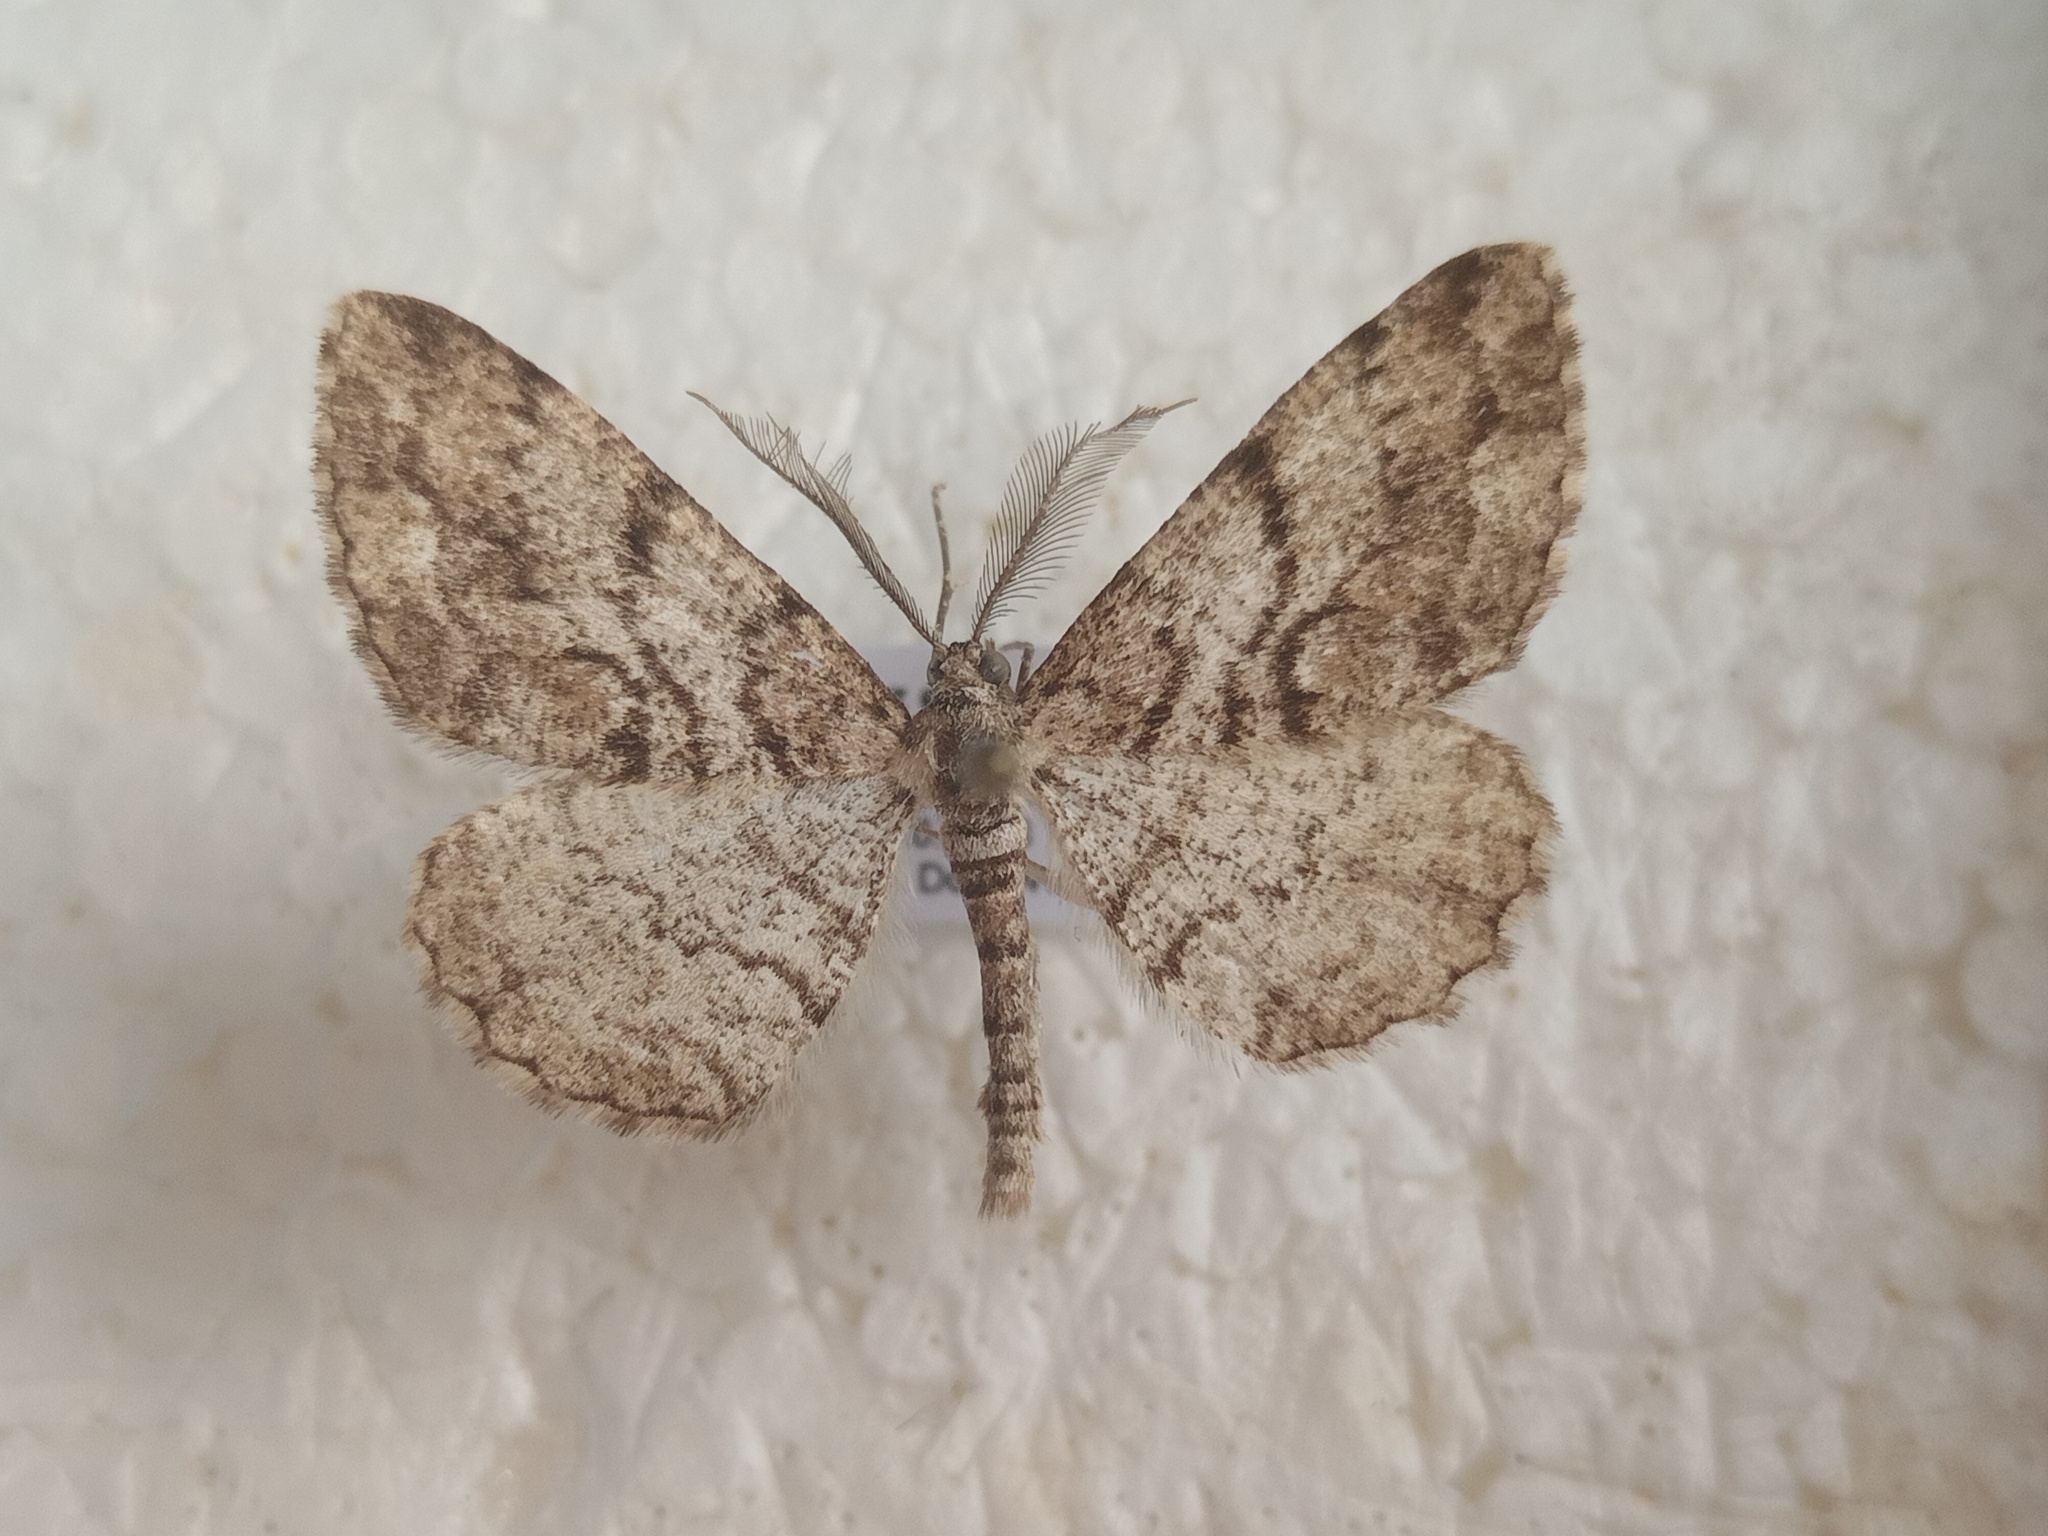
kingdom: Animalia
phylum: Arthropoda
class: Insecta
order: Lepidoptera
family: Geometridae
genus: Peribatodes
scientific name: Peribatodes secundaria
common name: Feathered beauty
